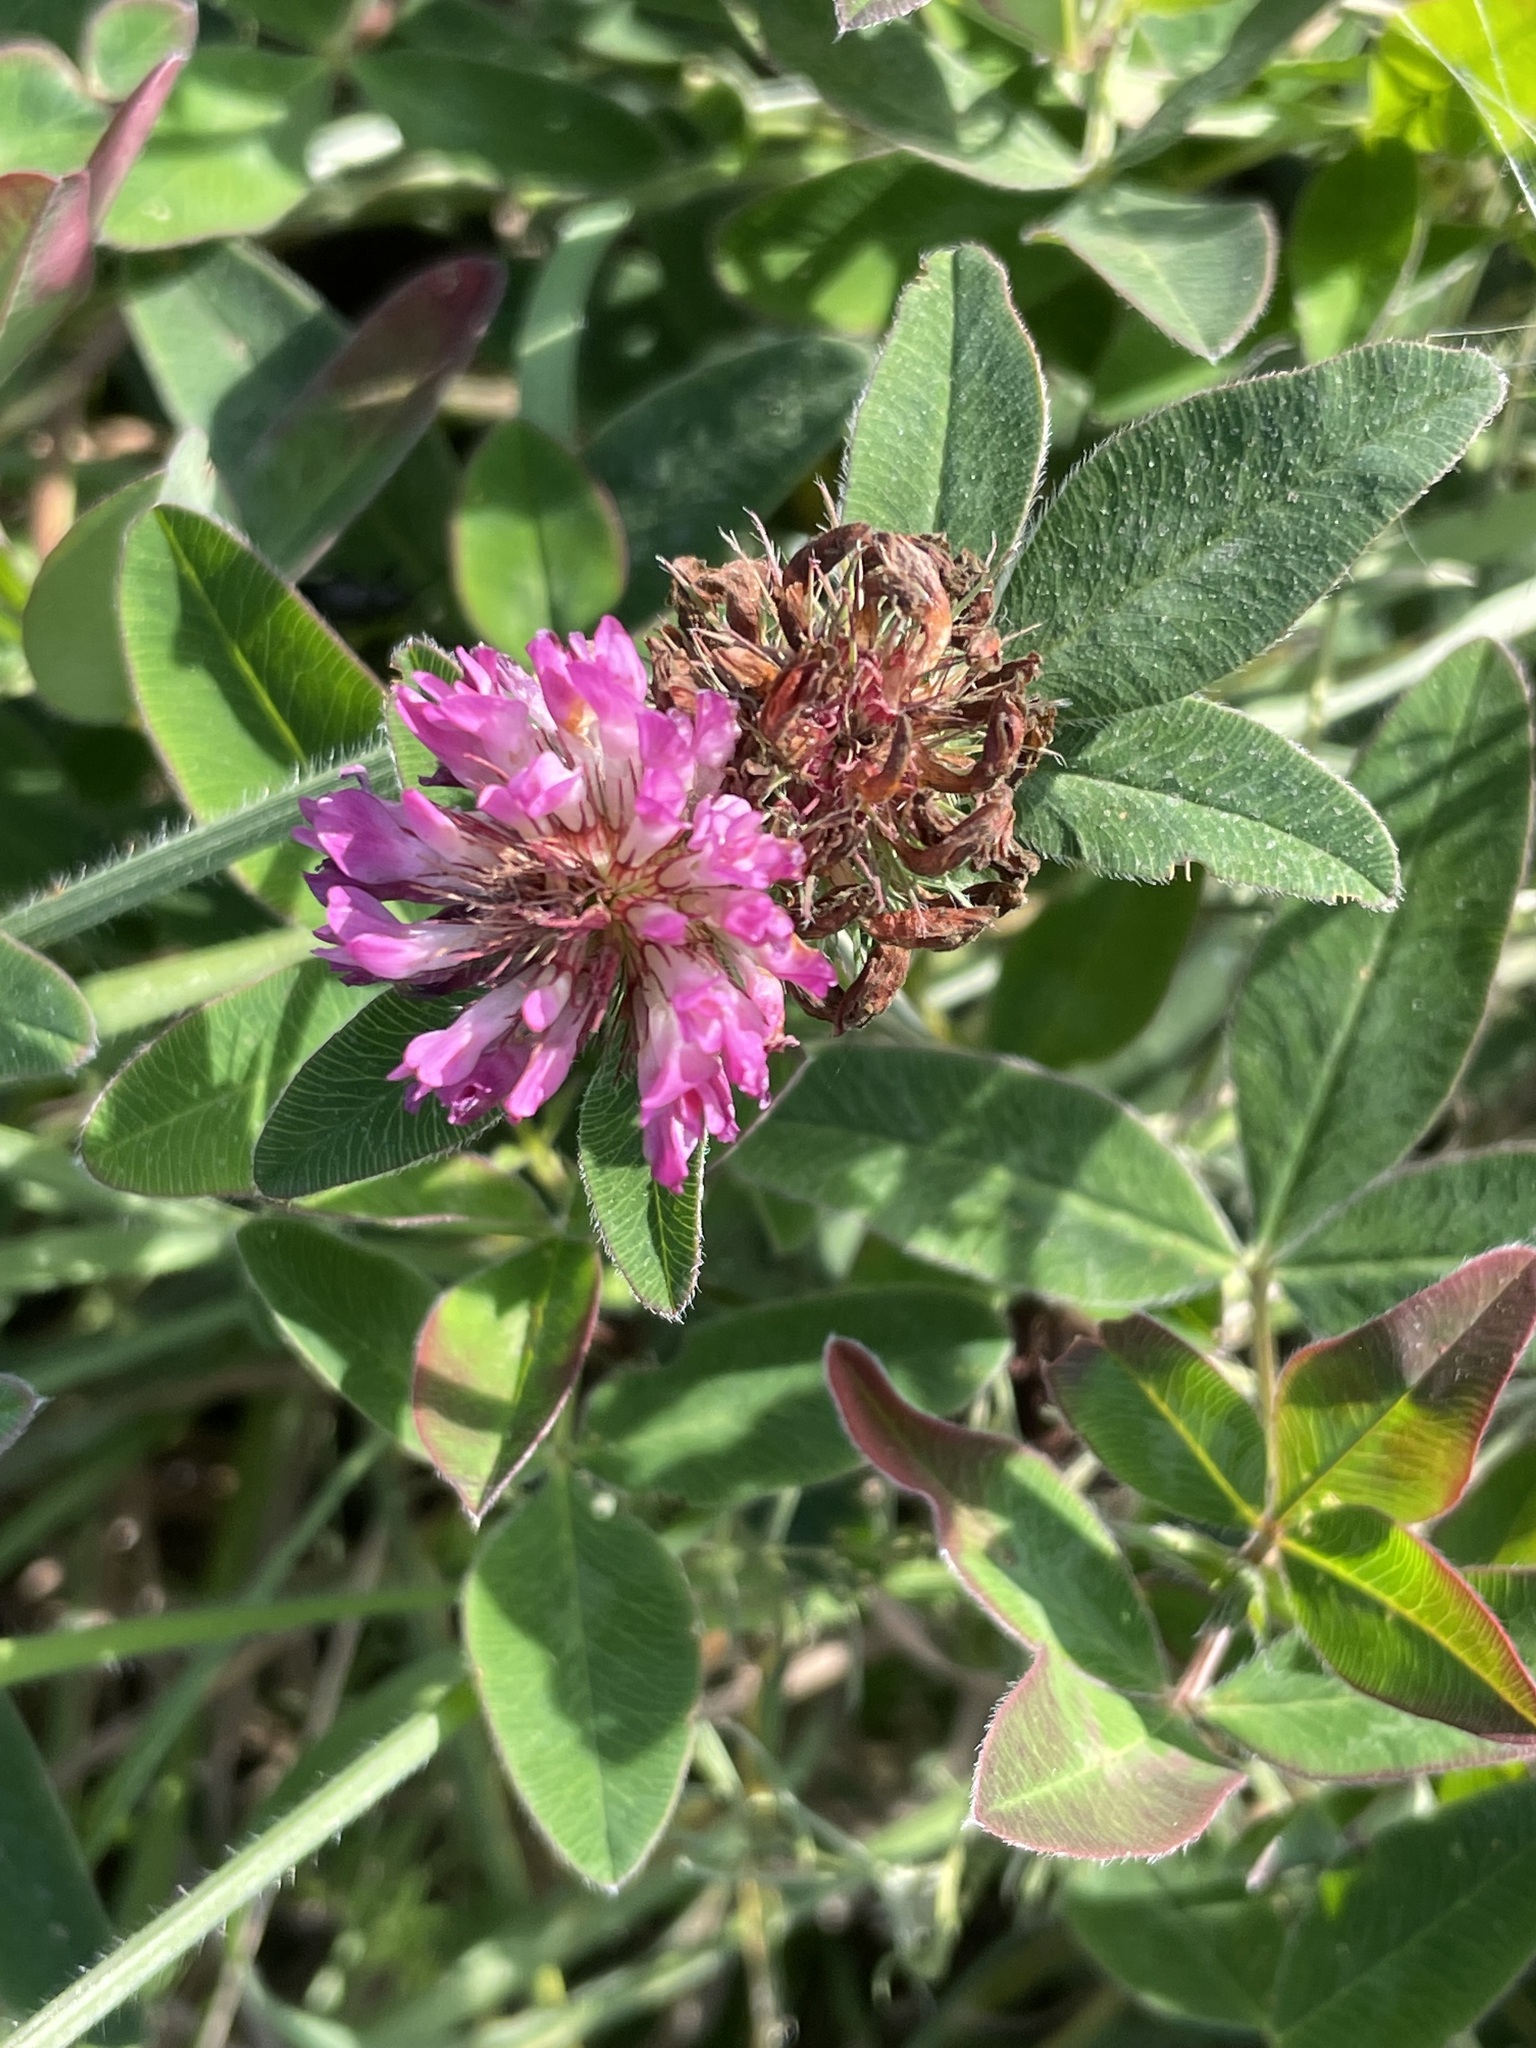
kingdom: Plantae
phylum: Tracheophyta
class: Magnoliopsida
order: Fabales
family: Fabaceae
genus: Trifolium
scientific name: Trifolium medium
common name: Zigzag clover
